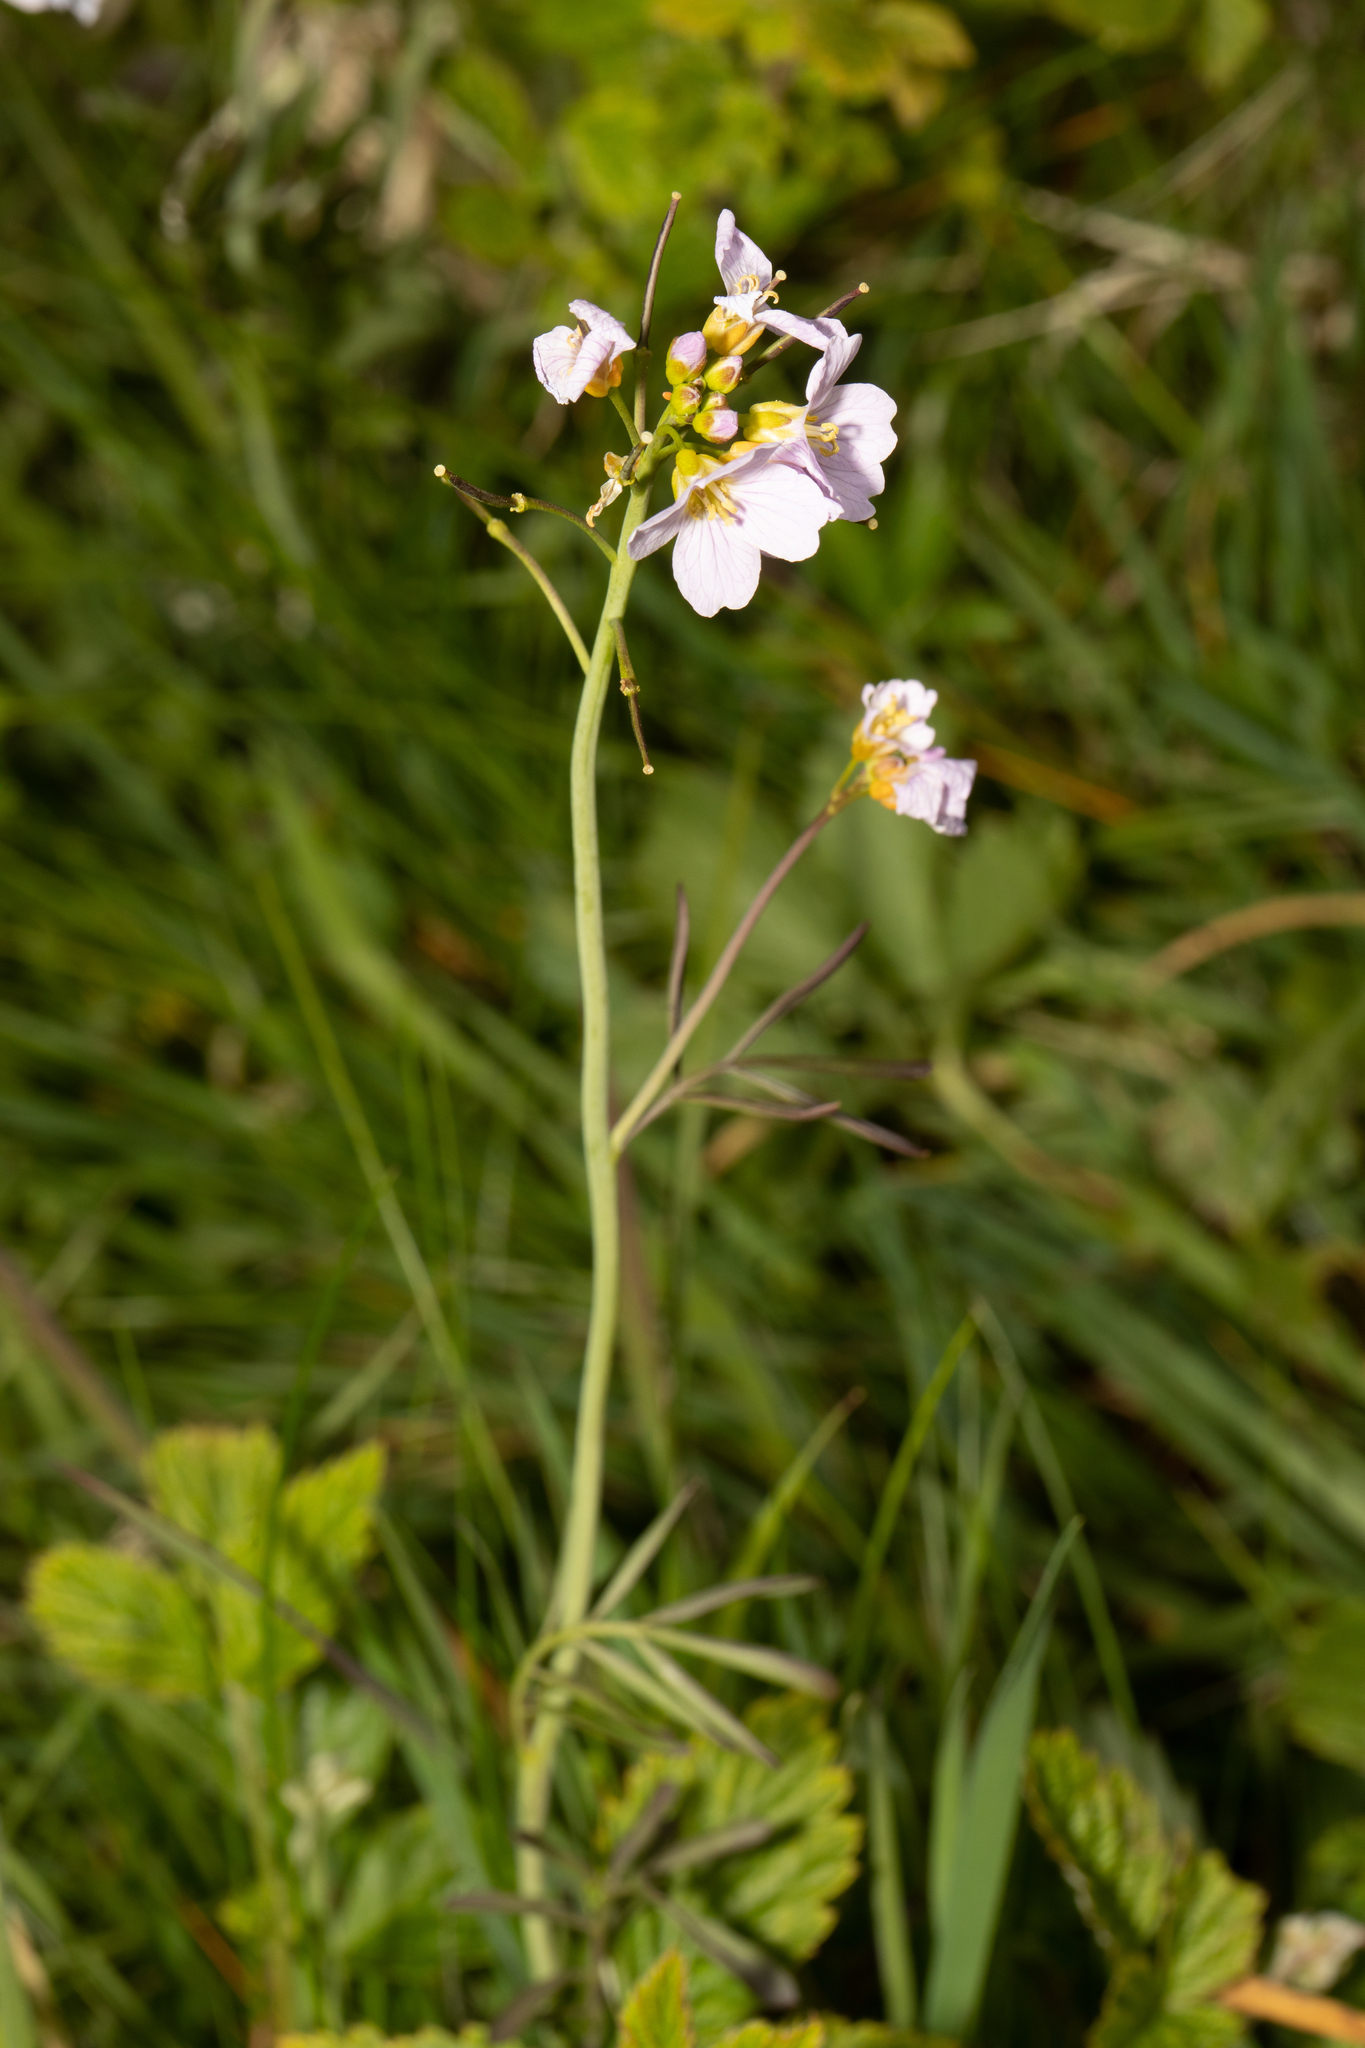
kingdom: Plantae
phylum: Tracheophyta
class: Magnoliopsida
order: Brassicales
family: Brassicaceae
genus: Cardamine
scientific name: Cardamine pratensis
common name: Cuckoo flower
